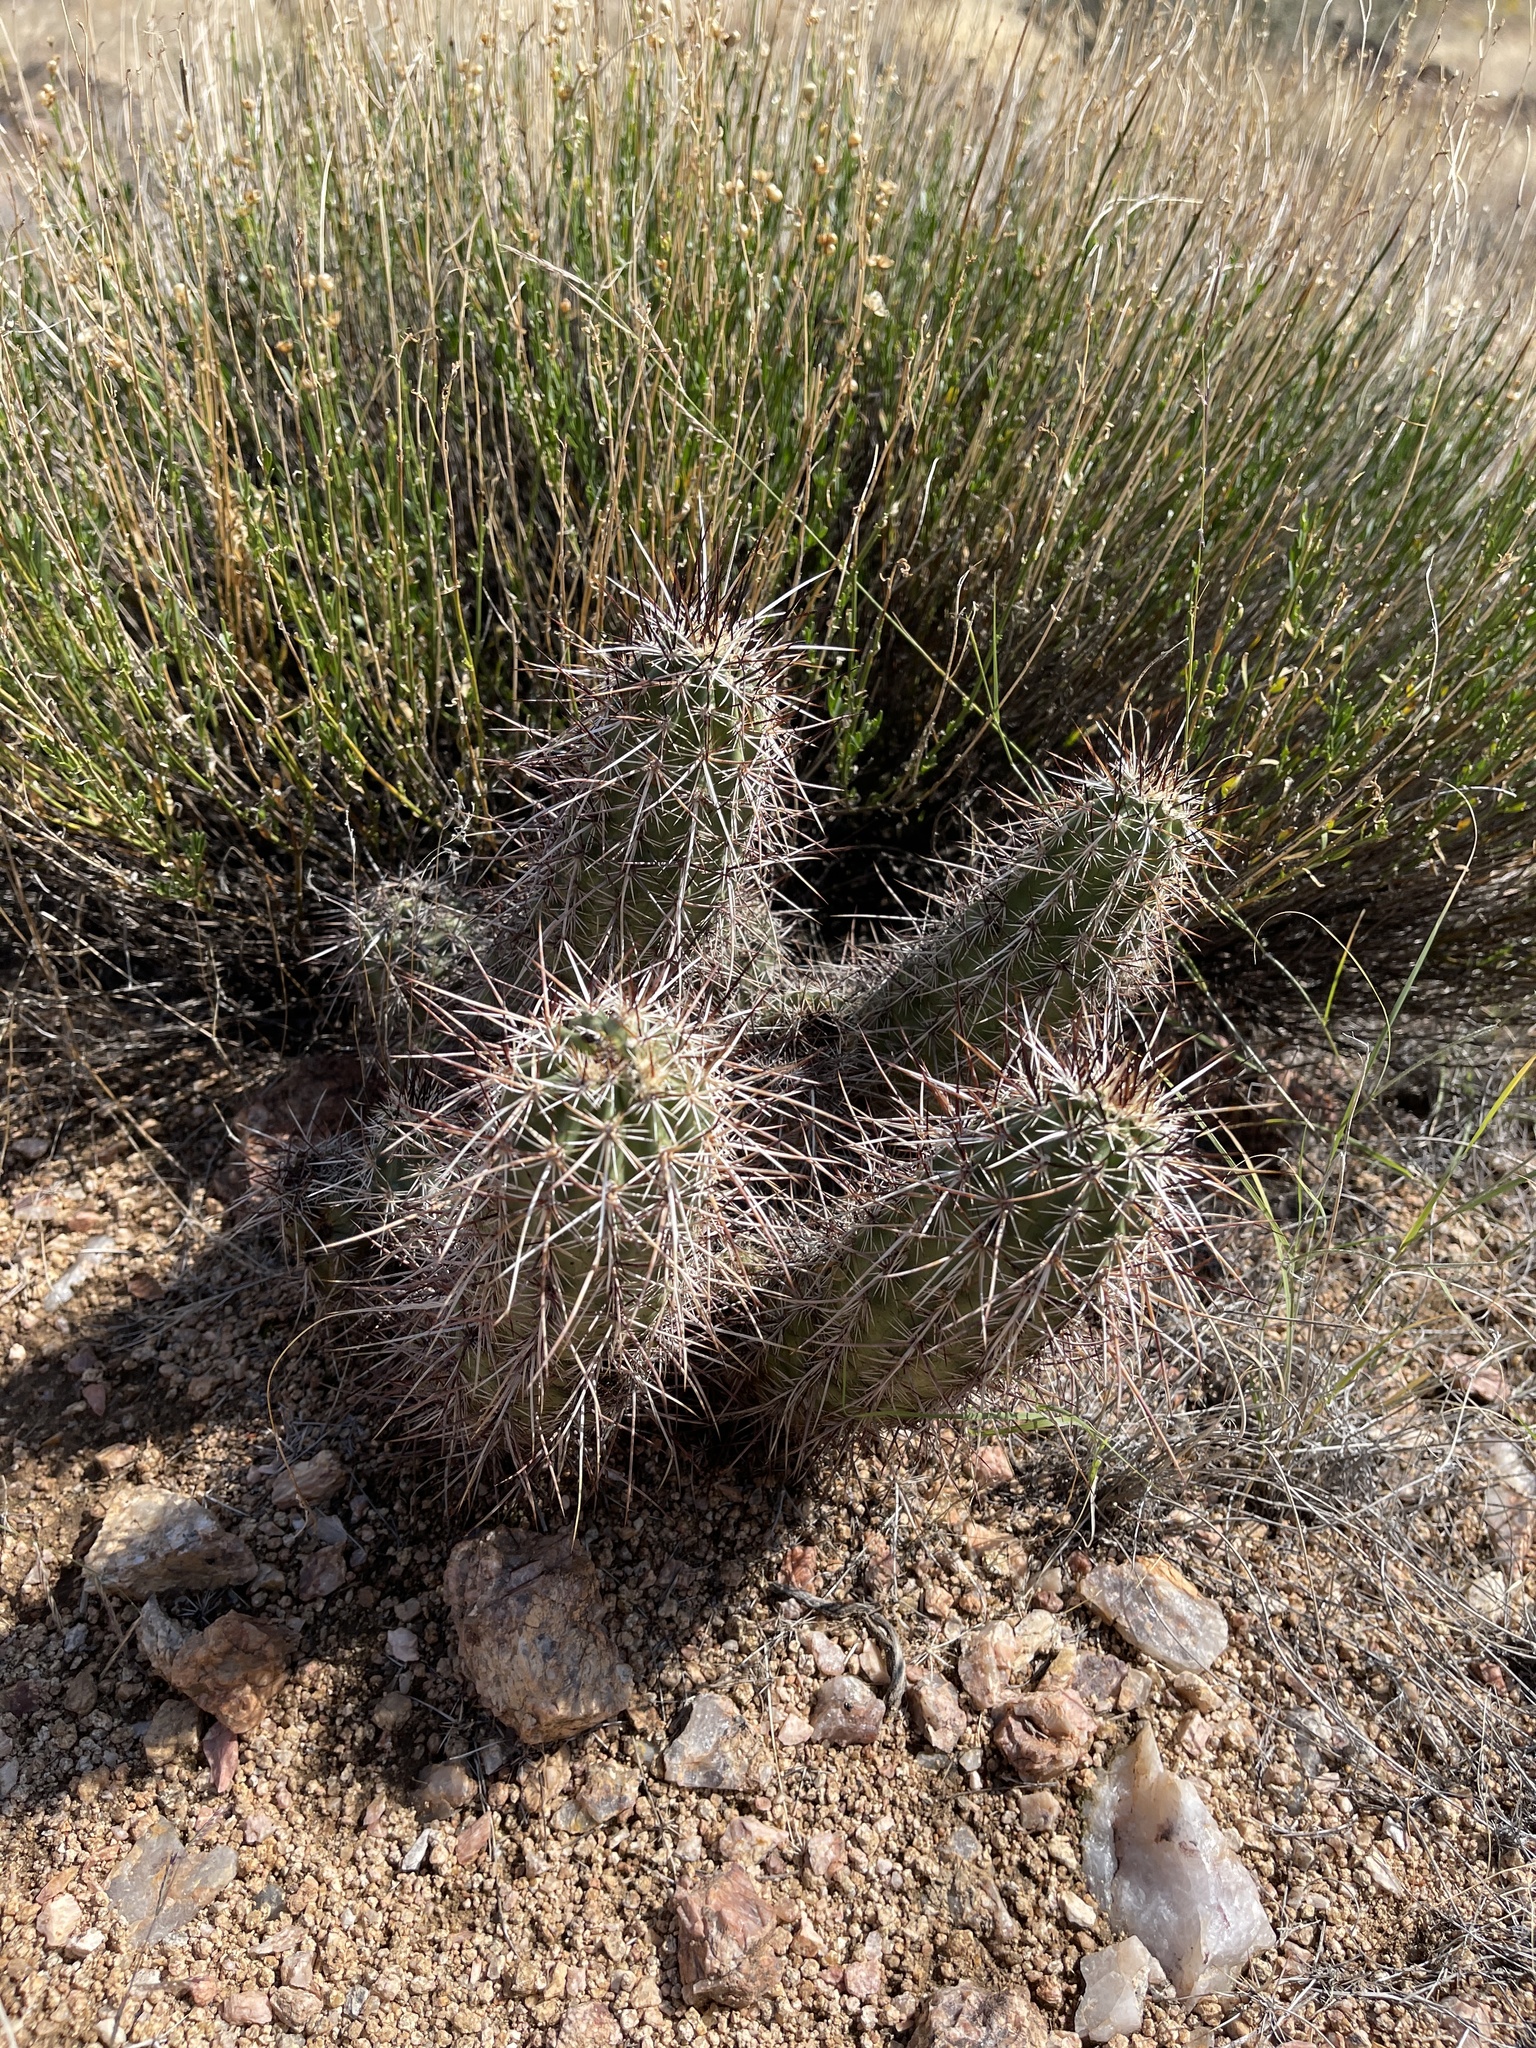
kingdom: Plantae
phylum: Tracheophyta
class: Magnoliopsida
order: Caryophyllales
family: Cactaceae
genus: Echinocereus
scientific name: Echinocereus engelmannii
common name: Engelmann's hedgehog cactus
